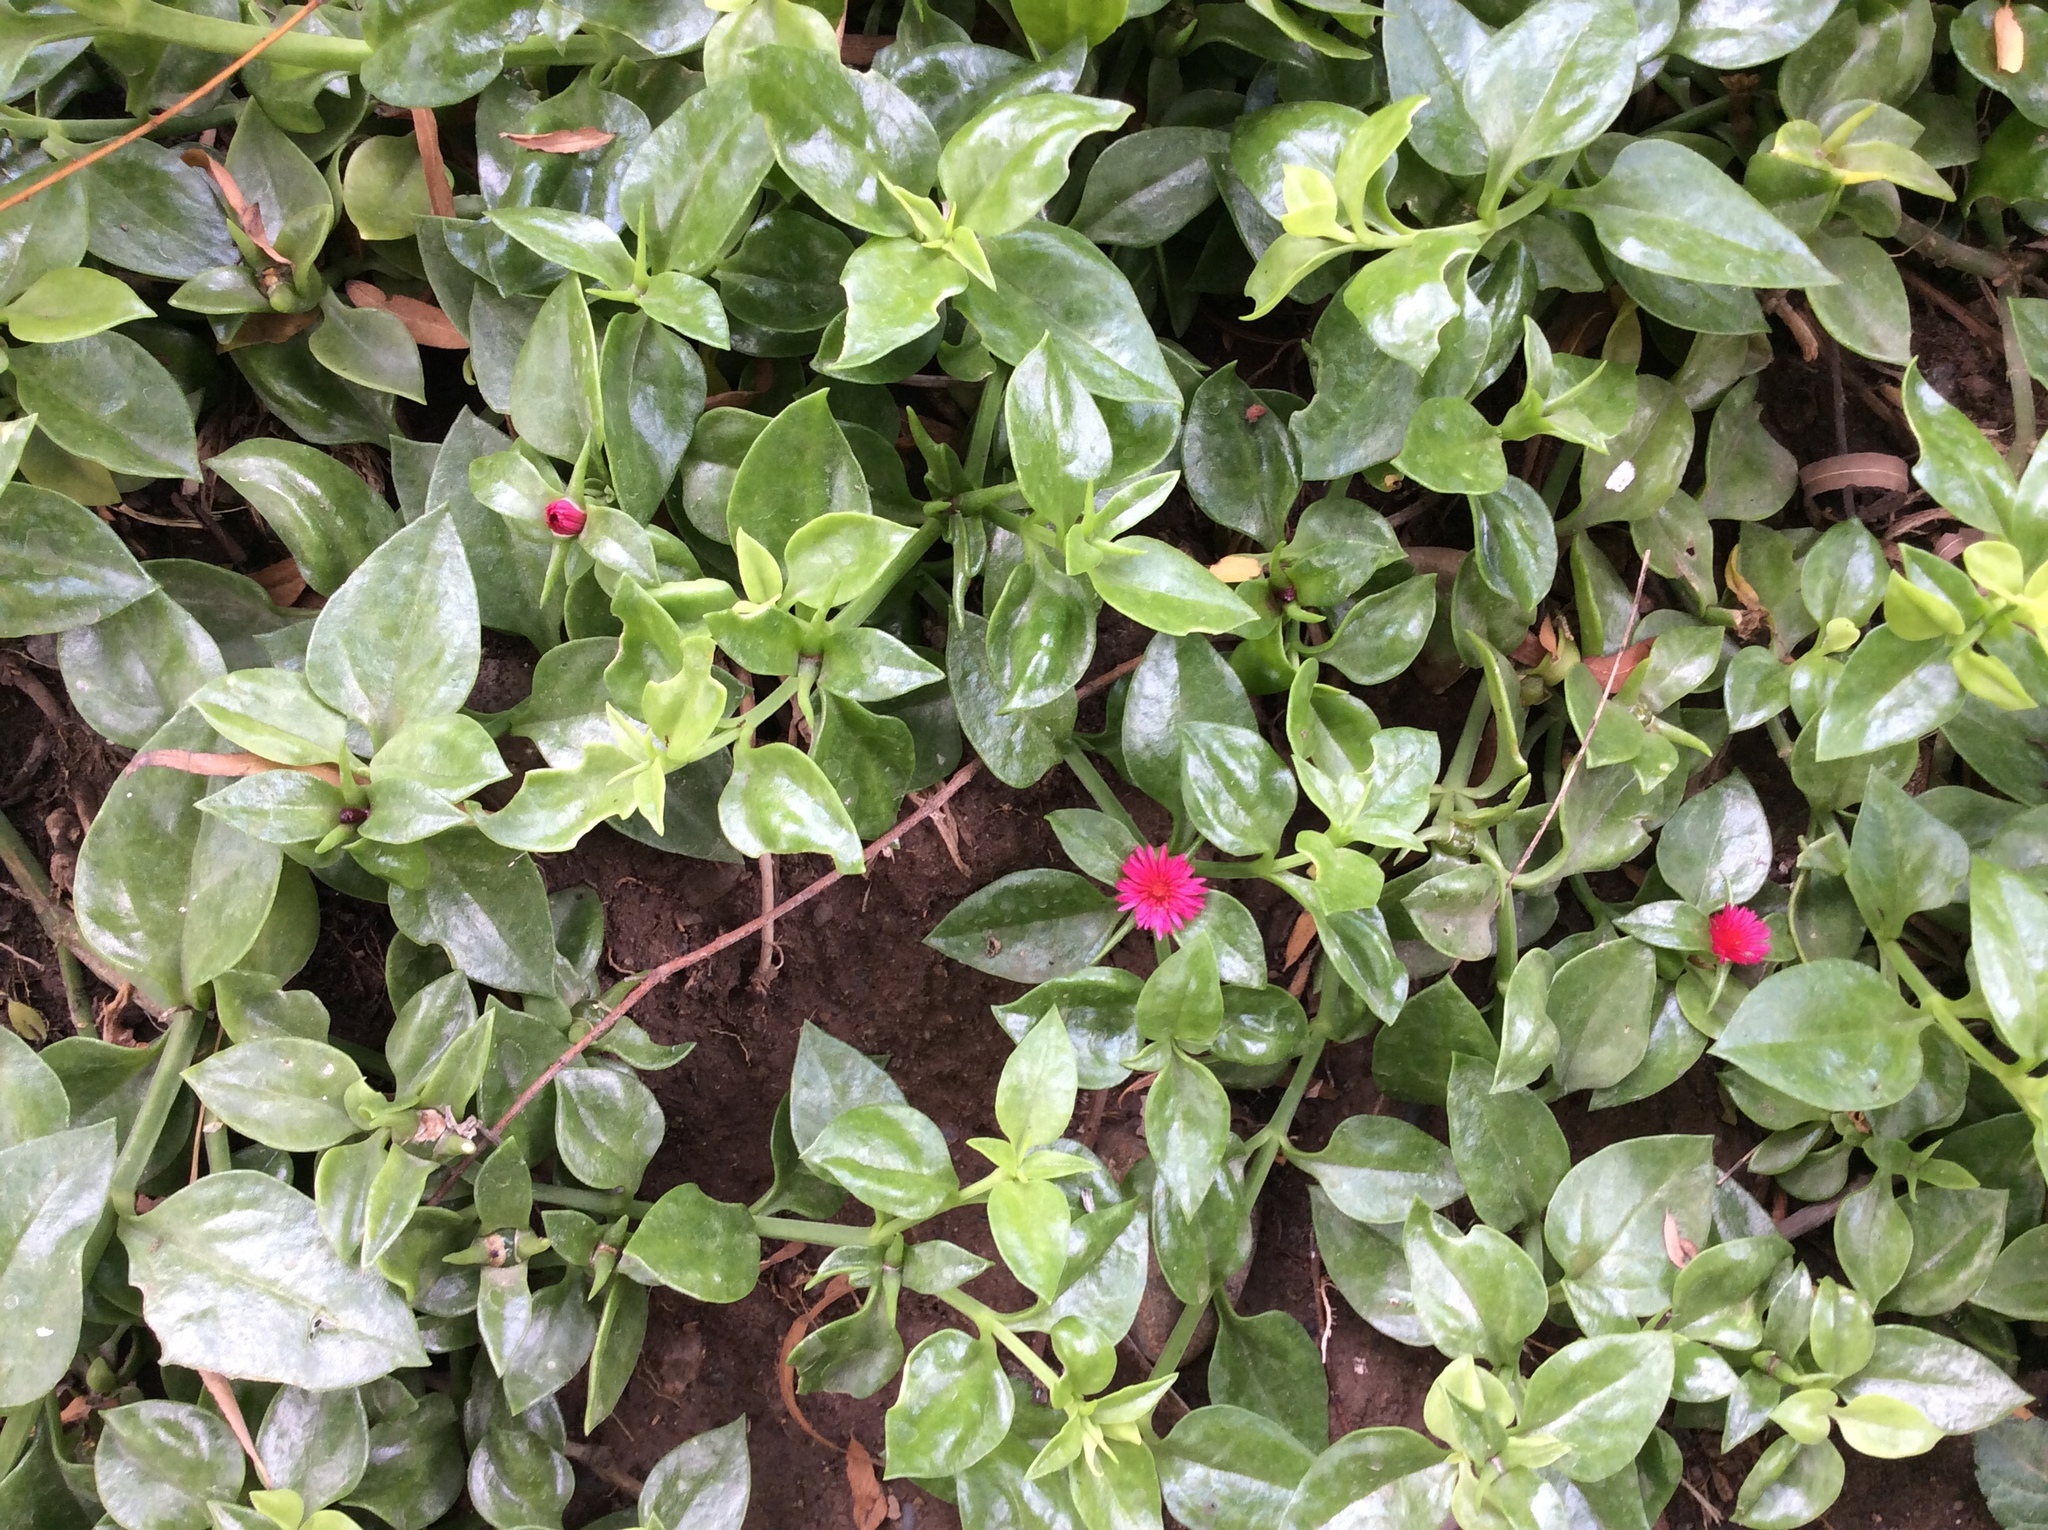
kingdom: Plantae
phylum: Tracheophyta
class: Magnoliopsida
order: Caryophyllales
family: Aizoaceae
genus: Mesembryanthemum
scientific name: Mesembryanthemum cordifolium
